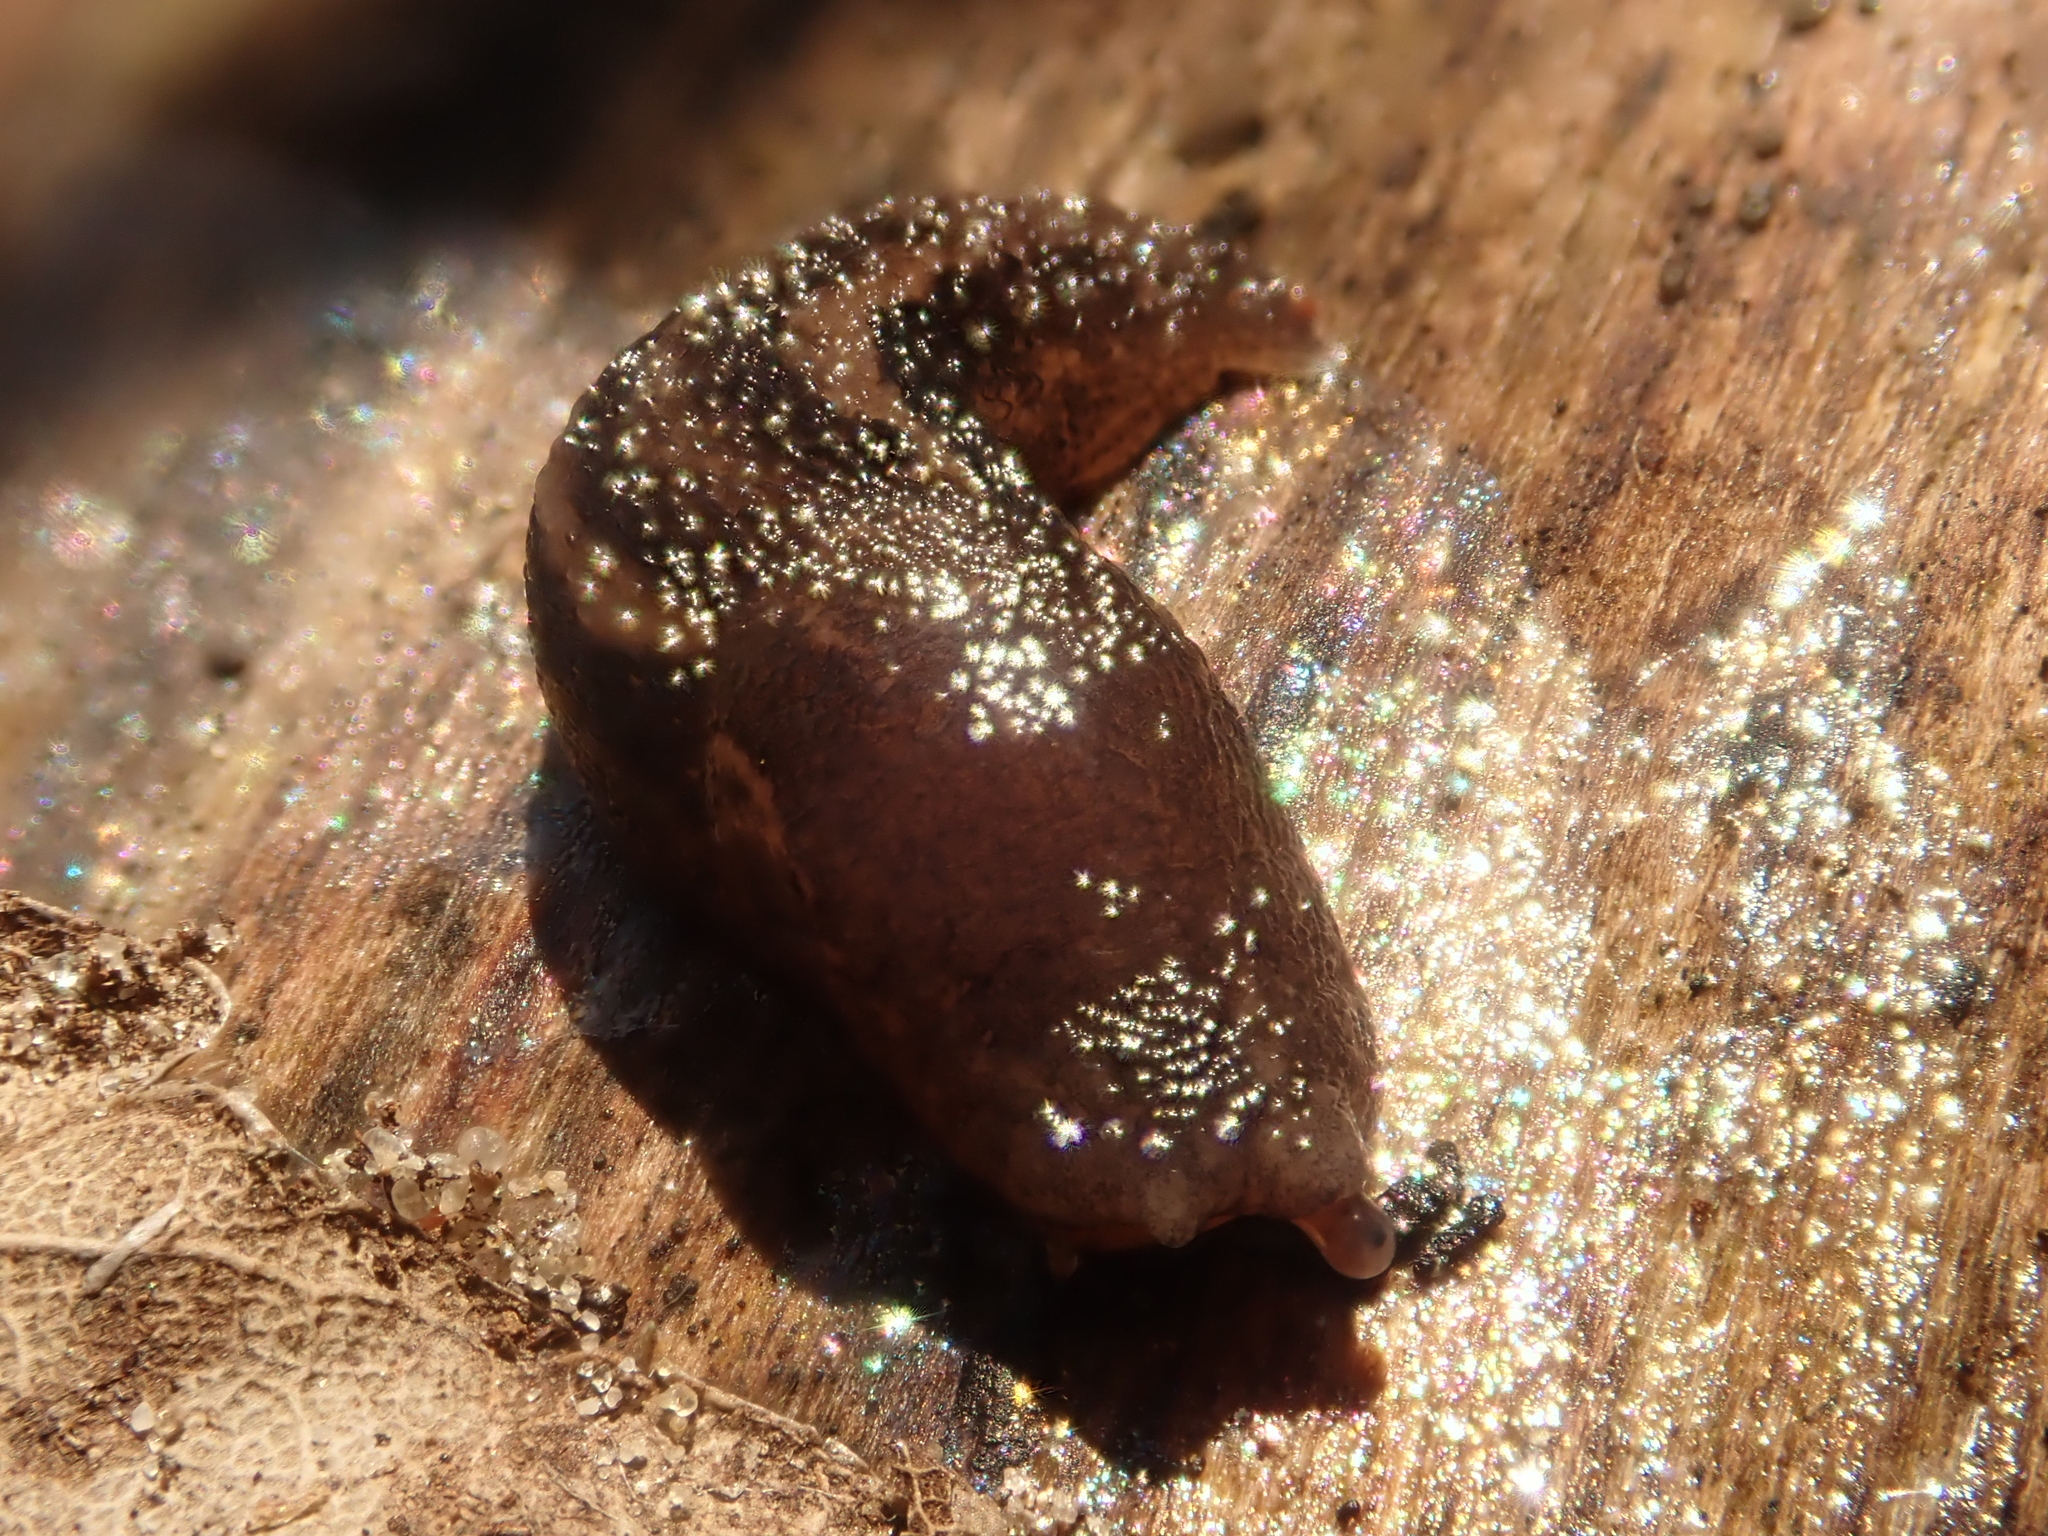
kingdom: Animalia
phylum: Mollusca
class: Gastropoda
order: Stylommatophora
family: Limacidae
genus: Limax
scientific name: Limax maximus
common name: Great grey slug
